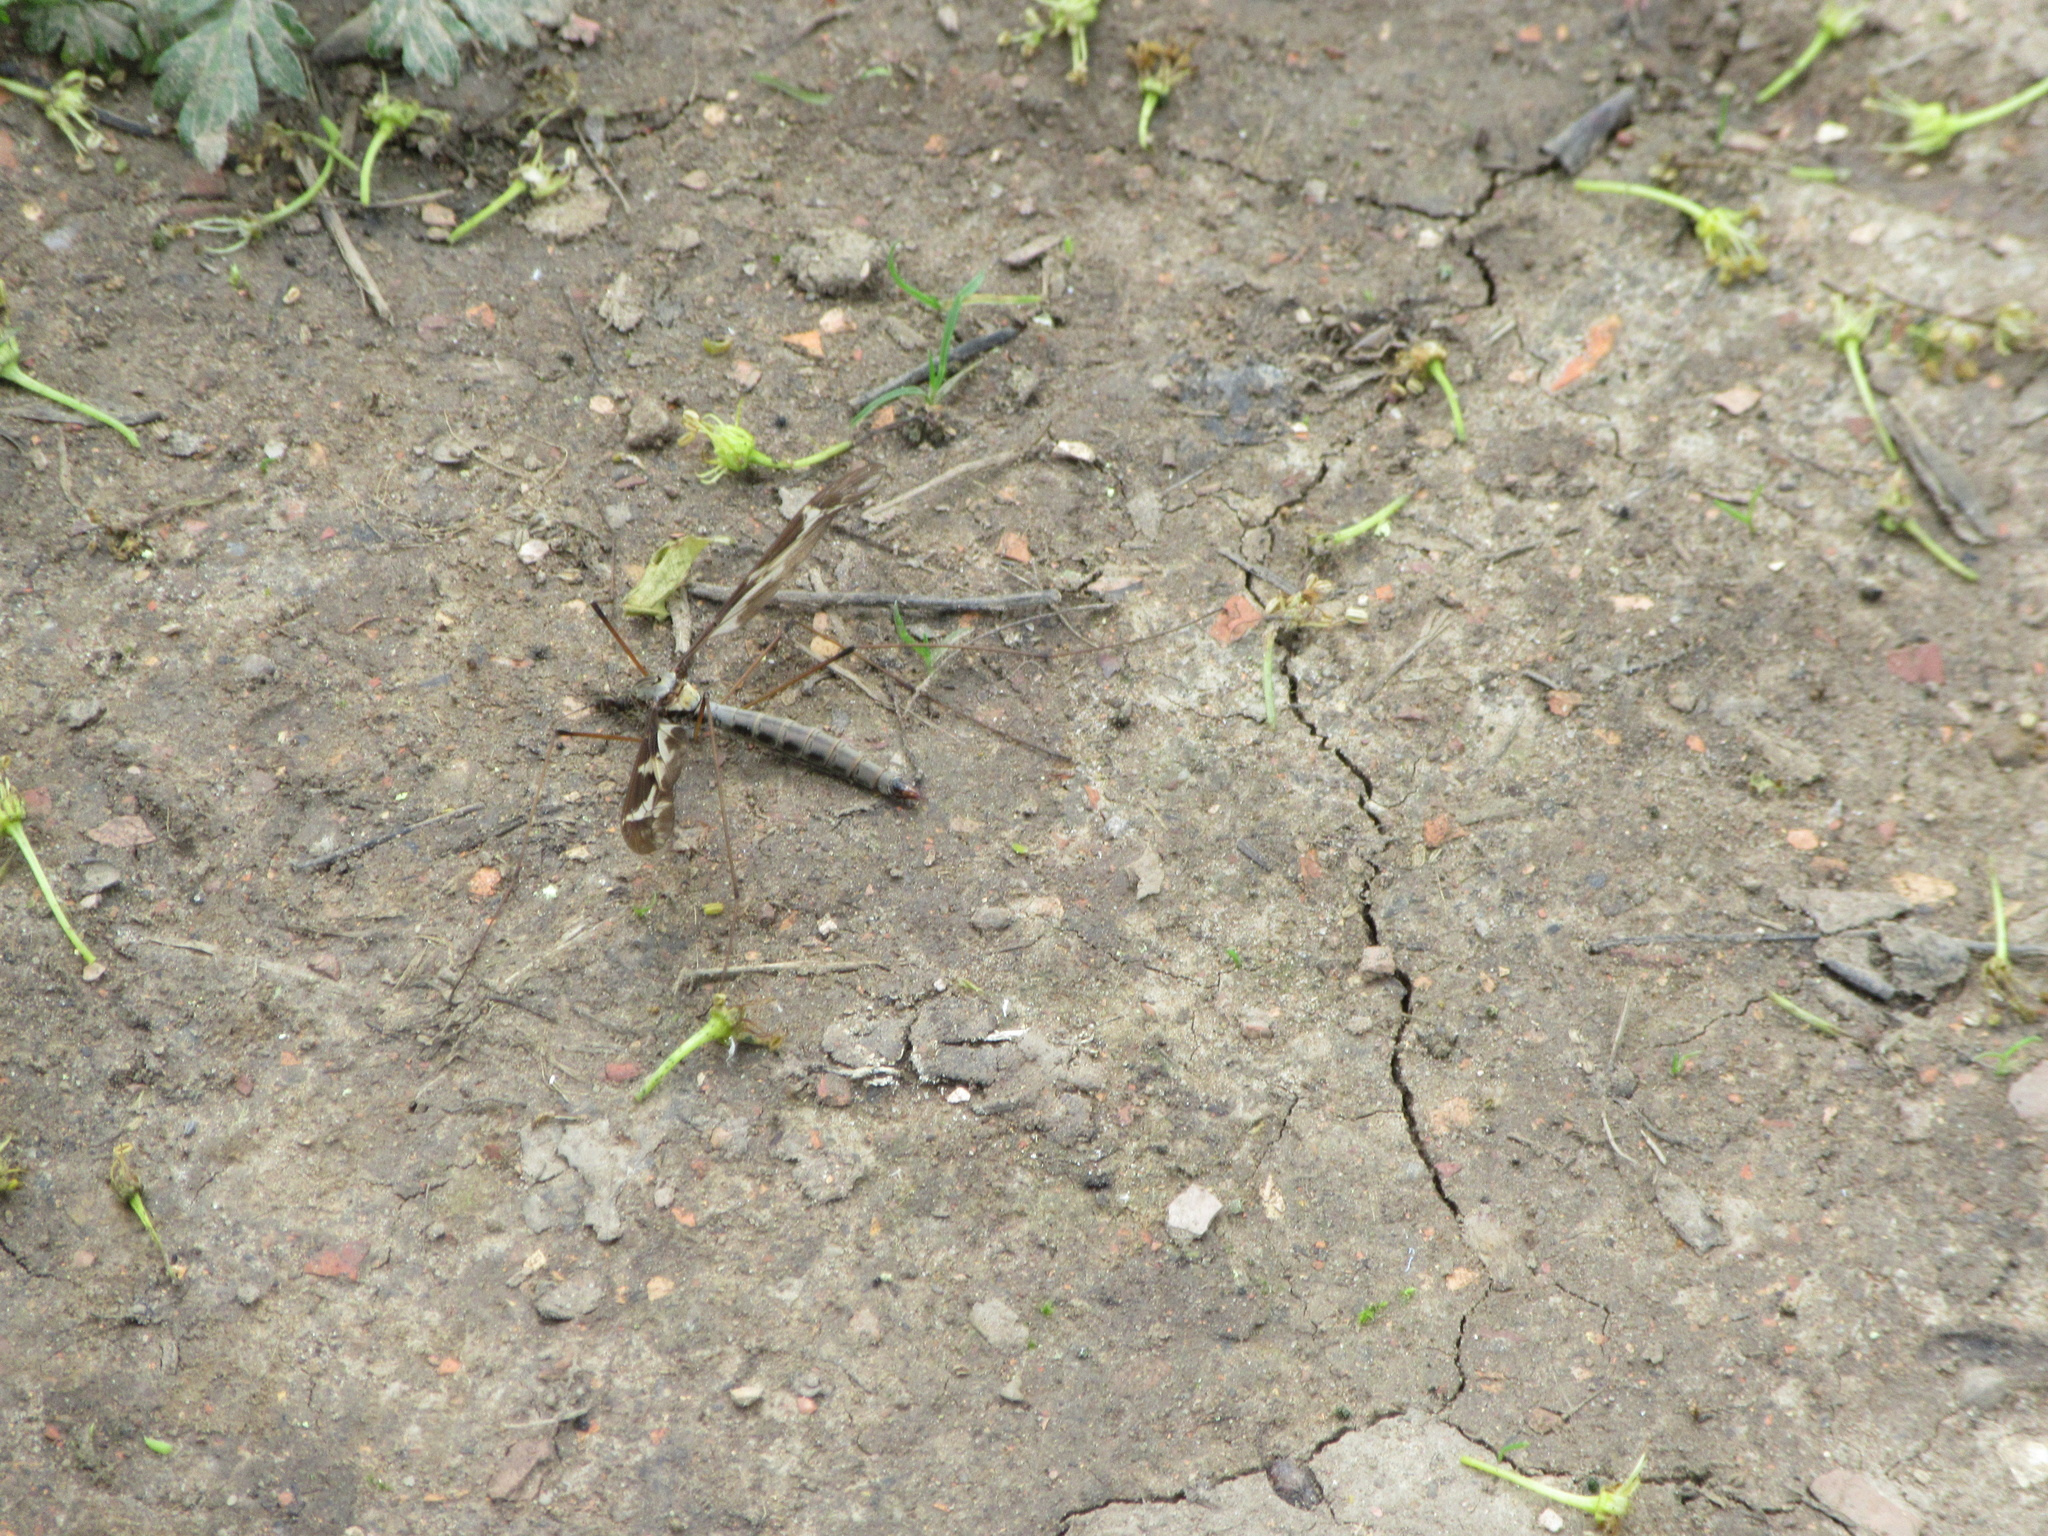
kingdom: Animalia
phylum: Arthropoda
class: Insecta
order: Diptera
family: Tipulidae
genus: Tipula
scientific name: Tipula maxima
